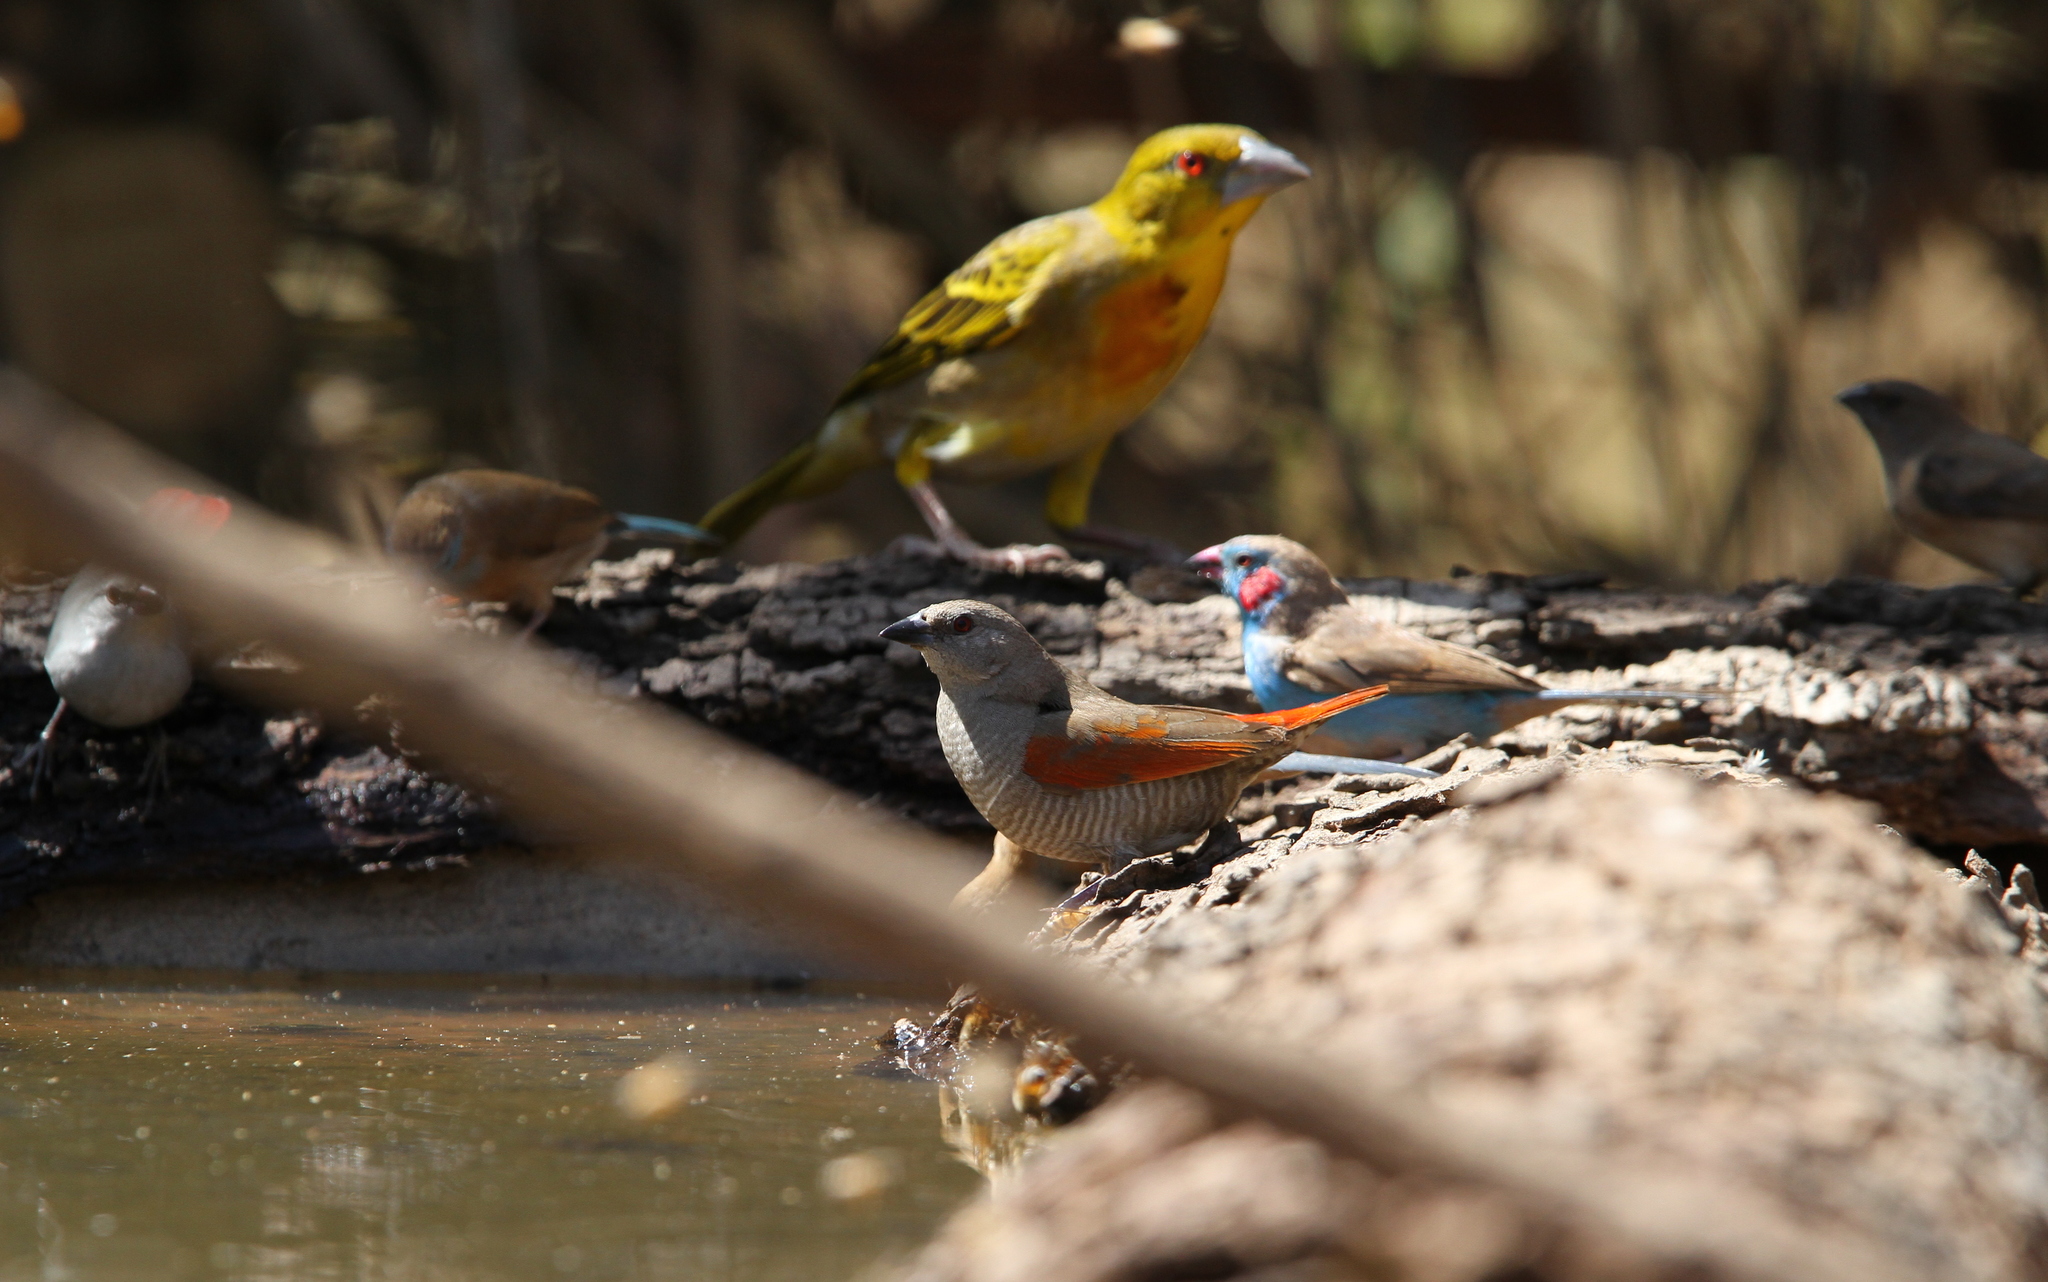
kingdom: Animalia
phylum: Chordata
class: Aves
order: Passeriformes
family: Estrildidae
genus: Pytilia
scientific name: Pytilia phoenicoptera
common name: Red-winged pytilia
